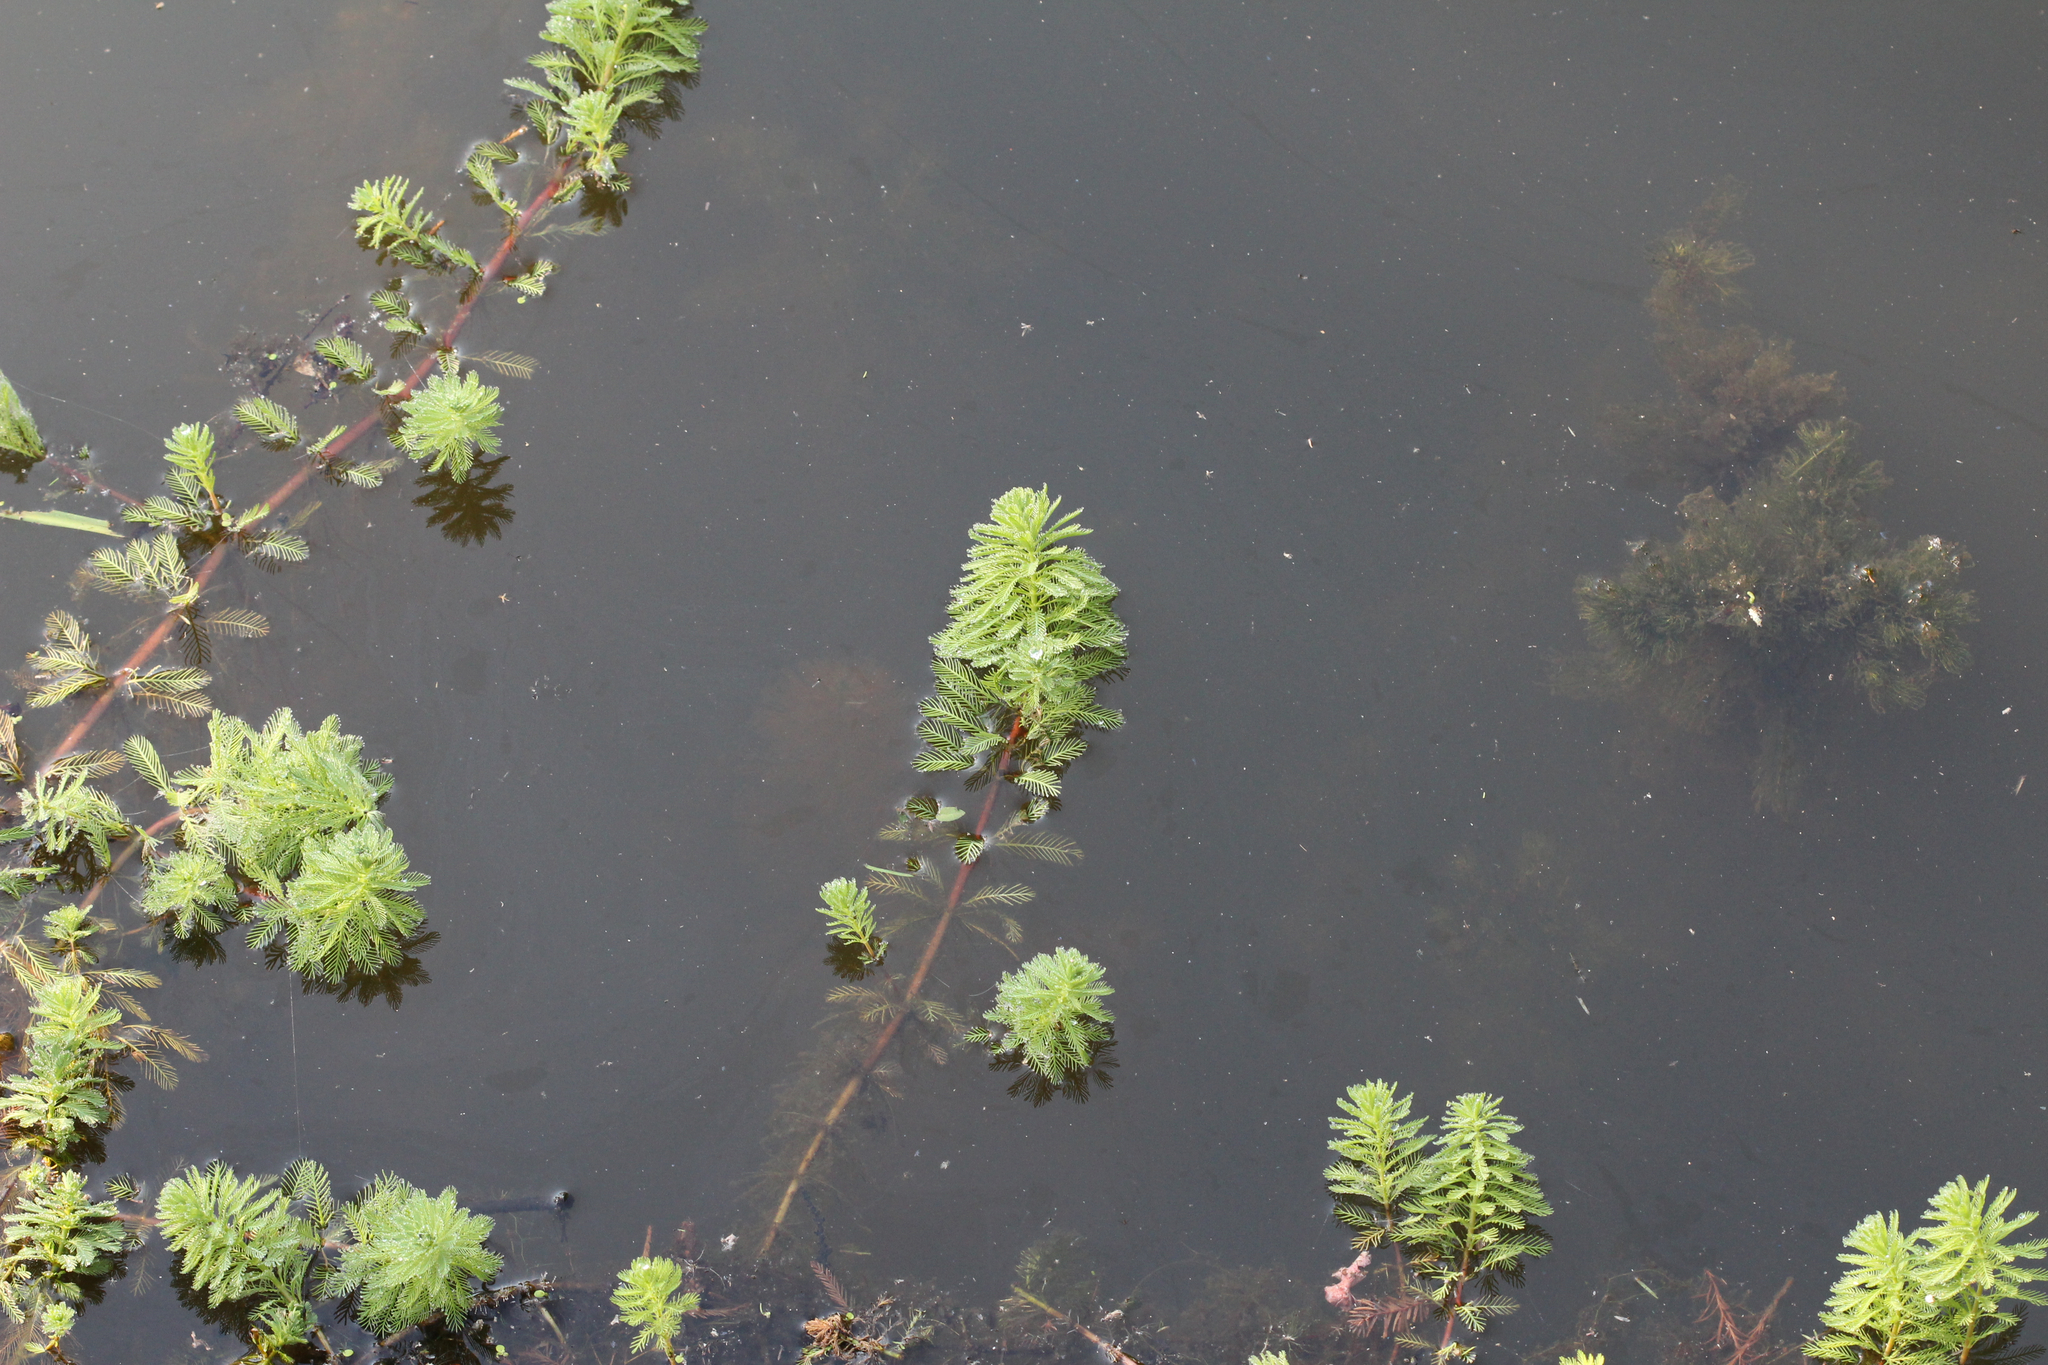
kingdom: Plantae
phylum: Tracheophyta
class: Magnoliopsida
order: Saxifragales
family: Haloragaceae
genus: Myriophyllum
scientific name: Myriophyllum aquaticum
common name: Parrot's feather
